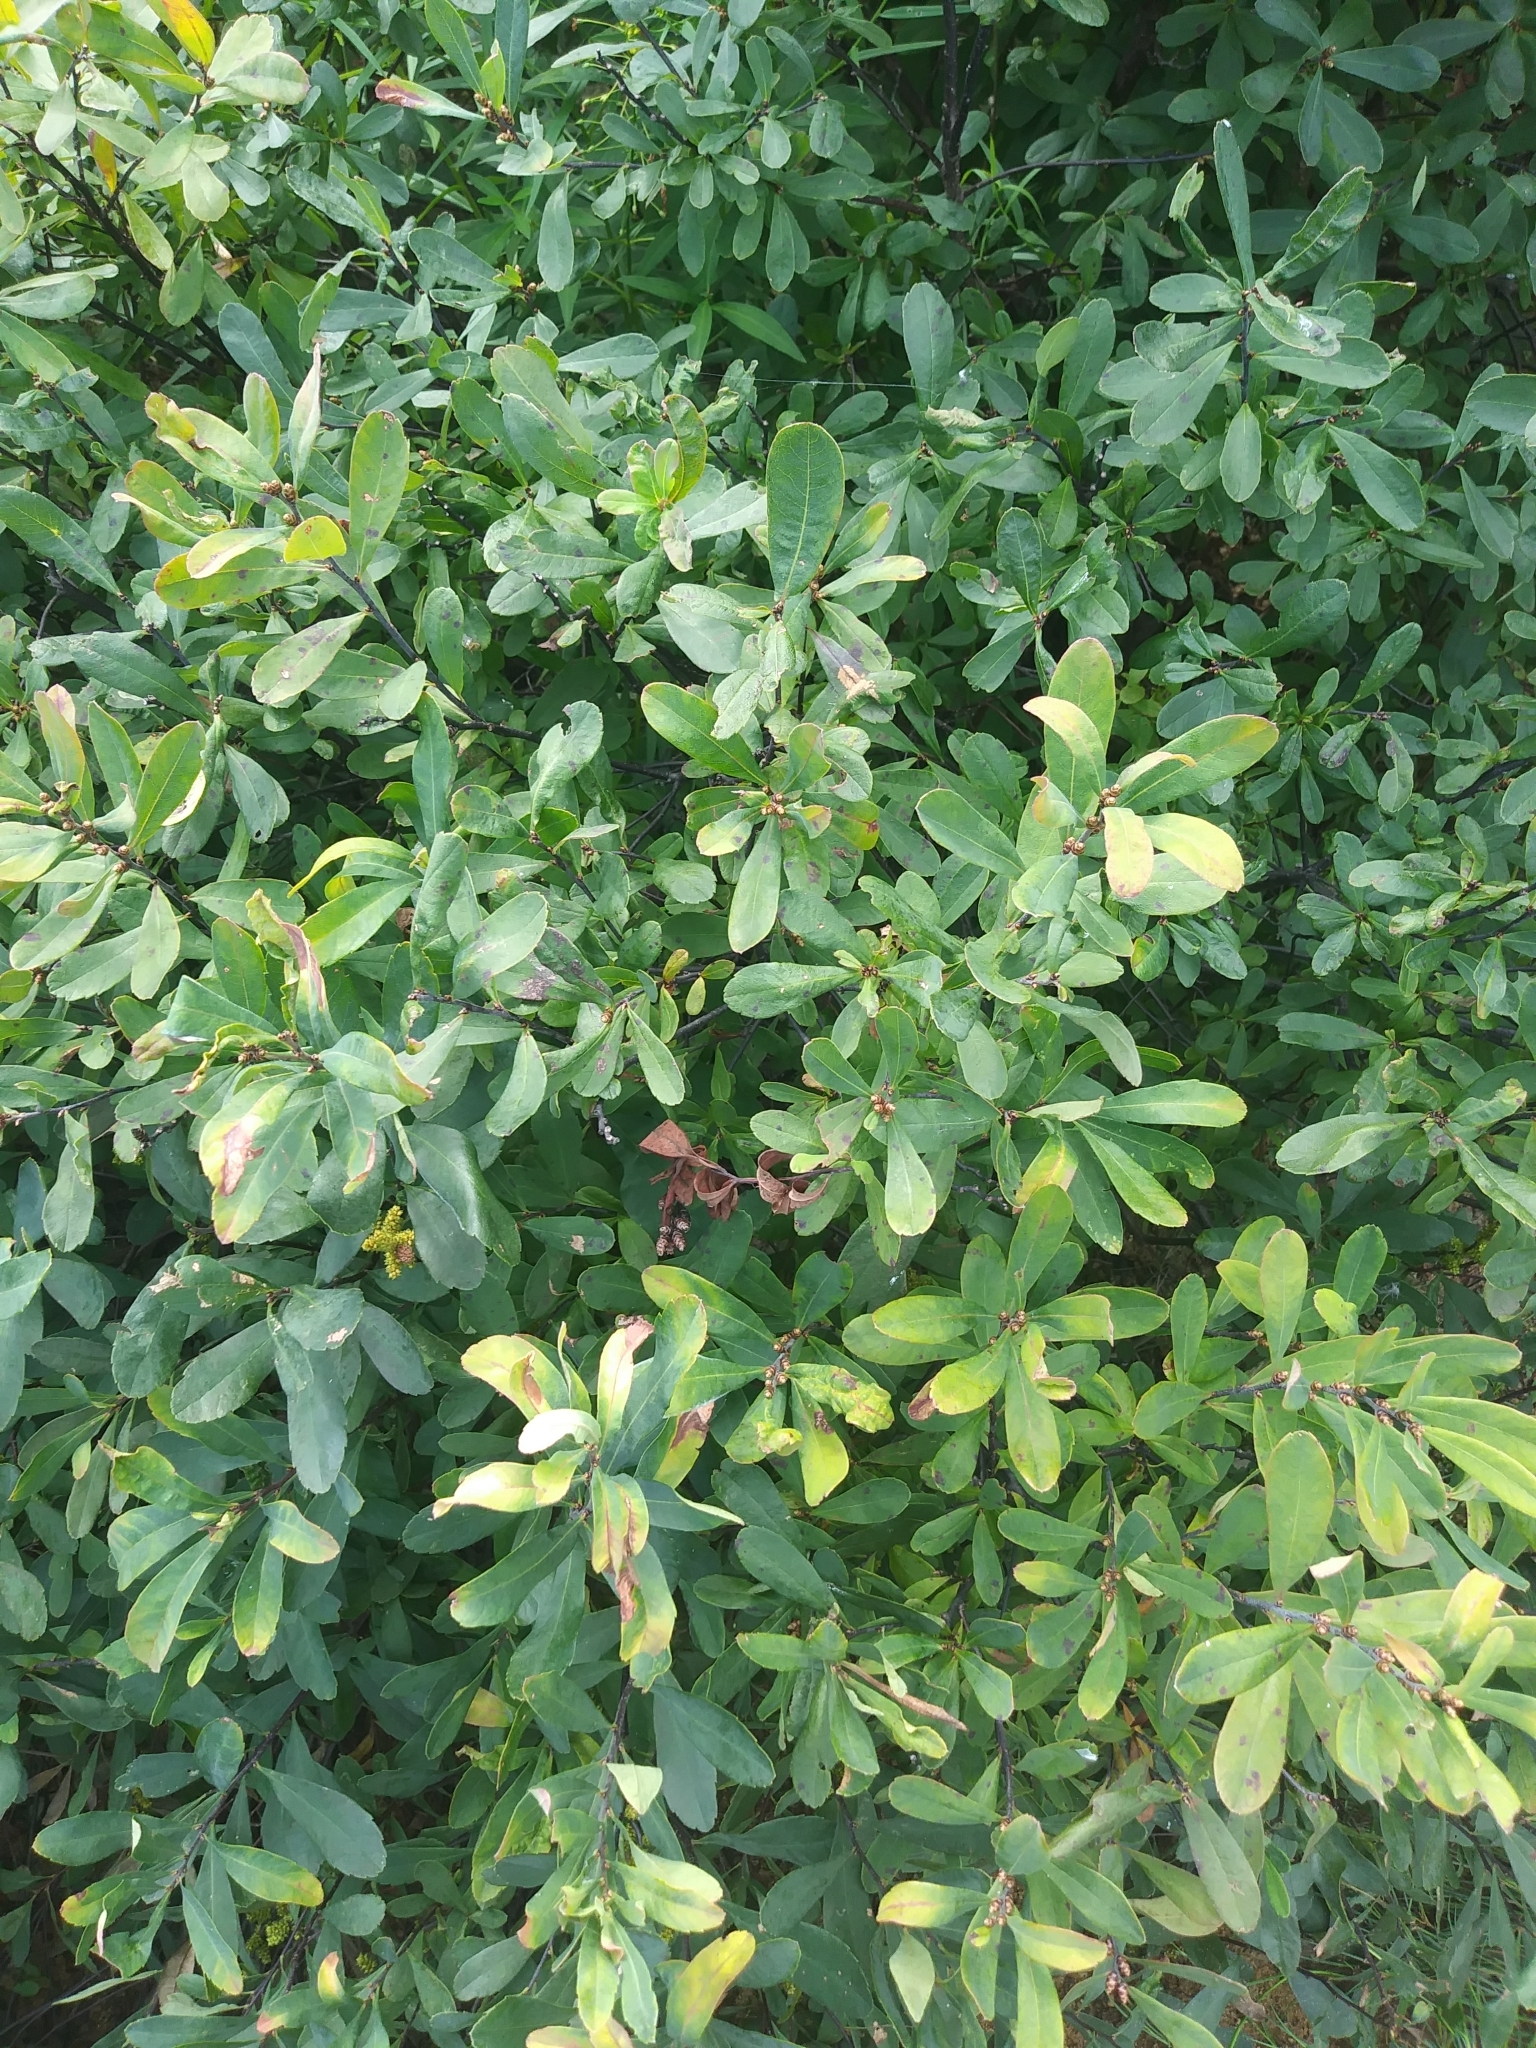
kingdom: Plantae
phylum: Tracheophyta
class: Magnoliopsida
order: Fagales
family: Myricaceae
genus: Myrica
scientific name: Myrica gale
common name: Sweet gale
